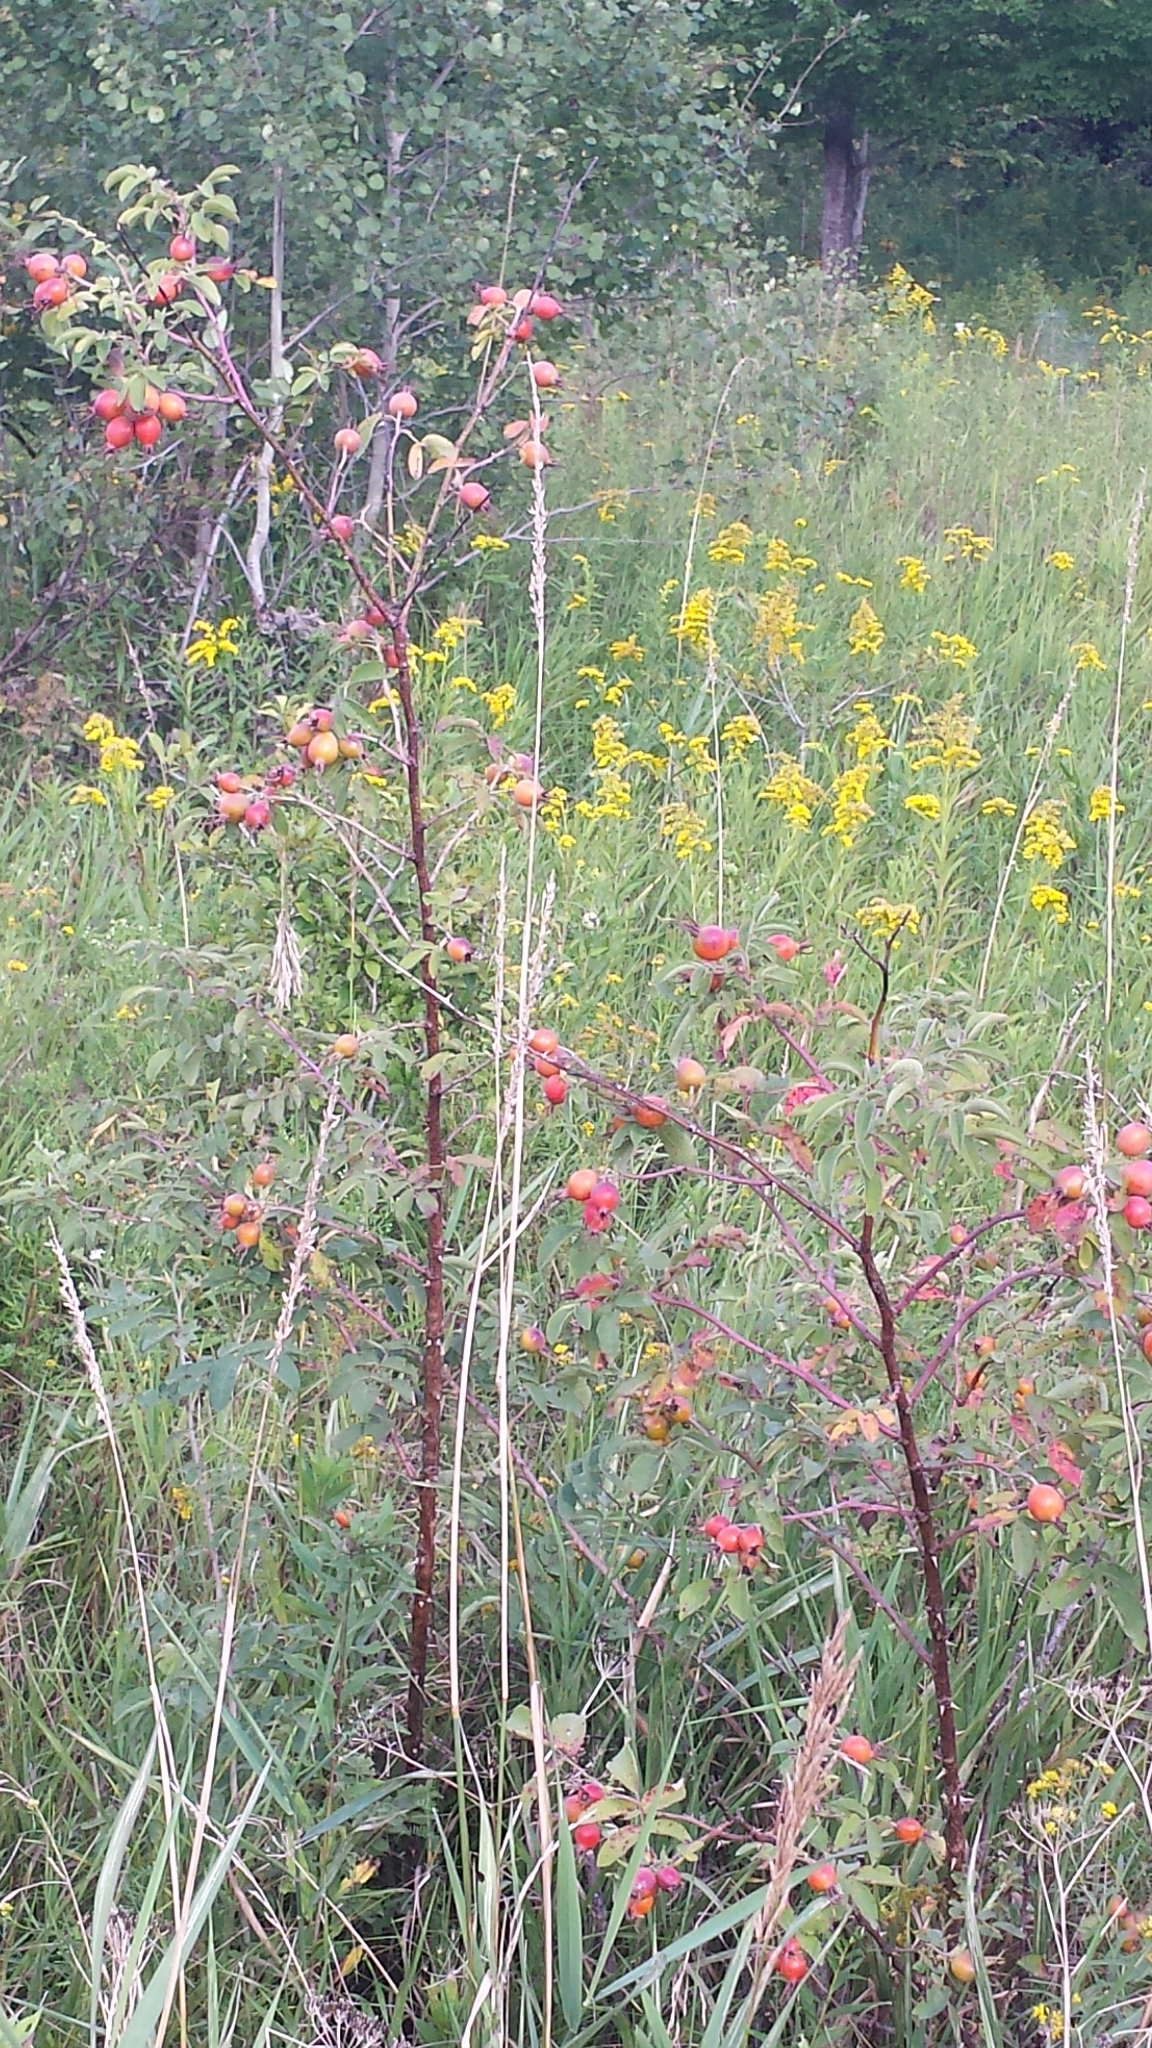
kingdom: Plantae
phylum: Tracheophyta
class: Magnoliopsida
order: Rosales
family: Rosaceae
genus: Rosa
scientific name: Rosa sherardii
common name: Sherard's downy rose
